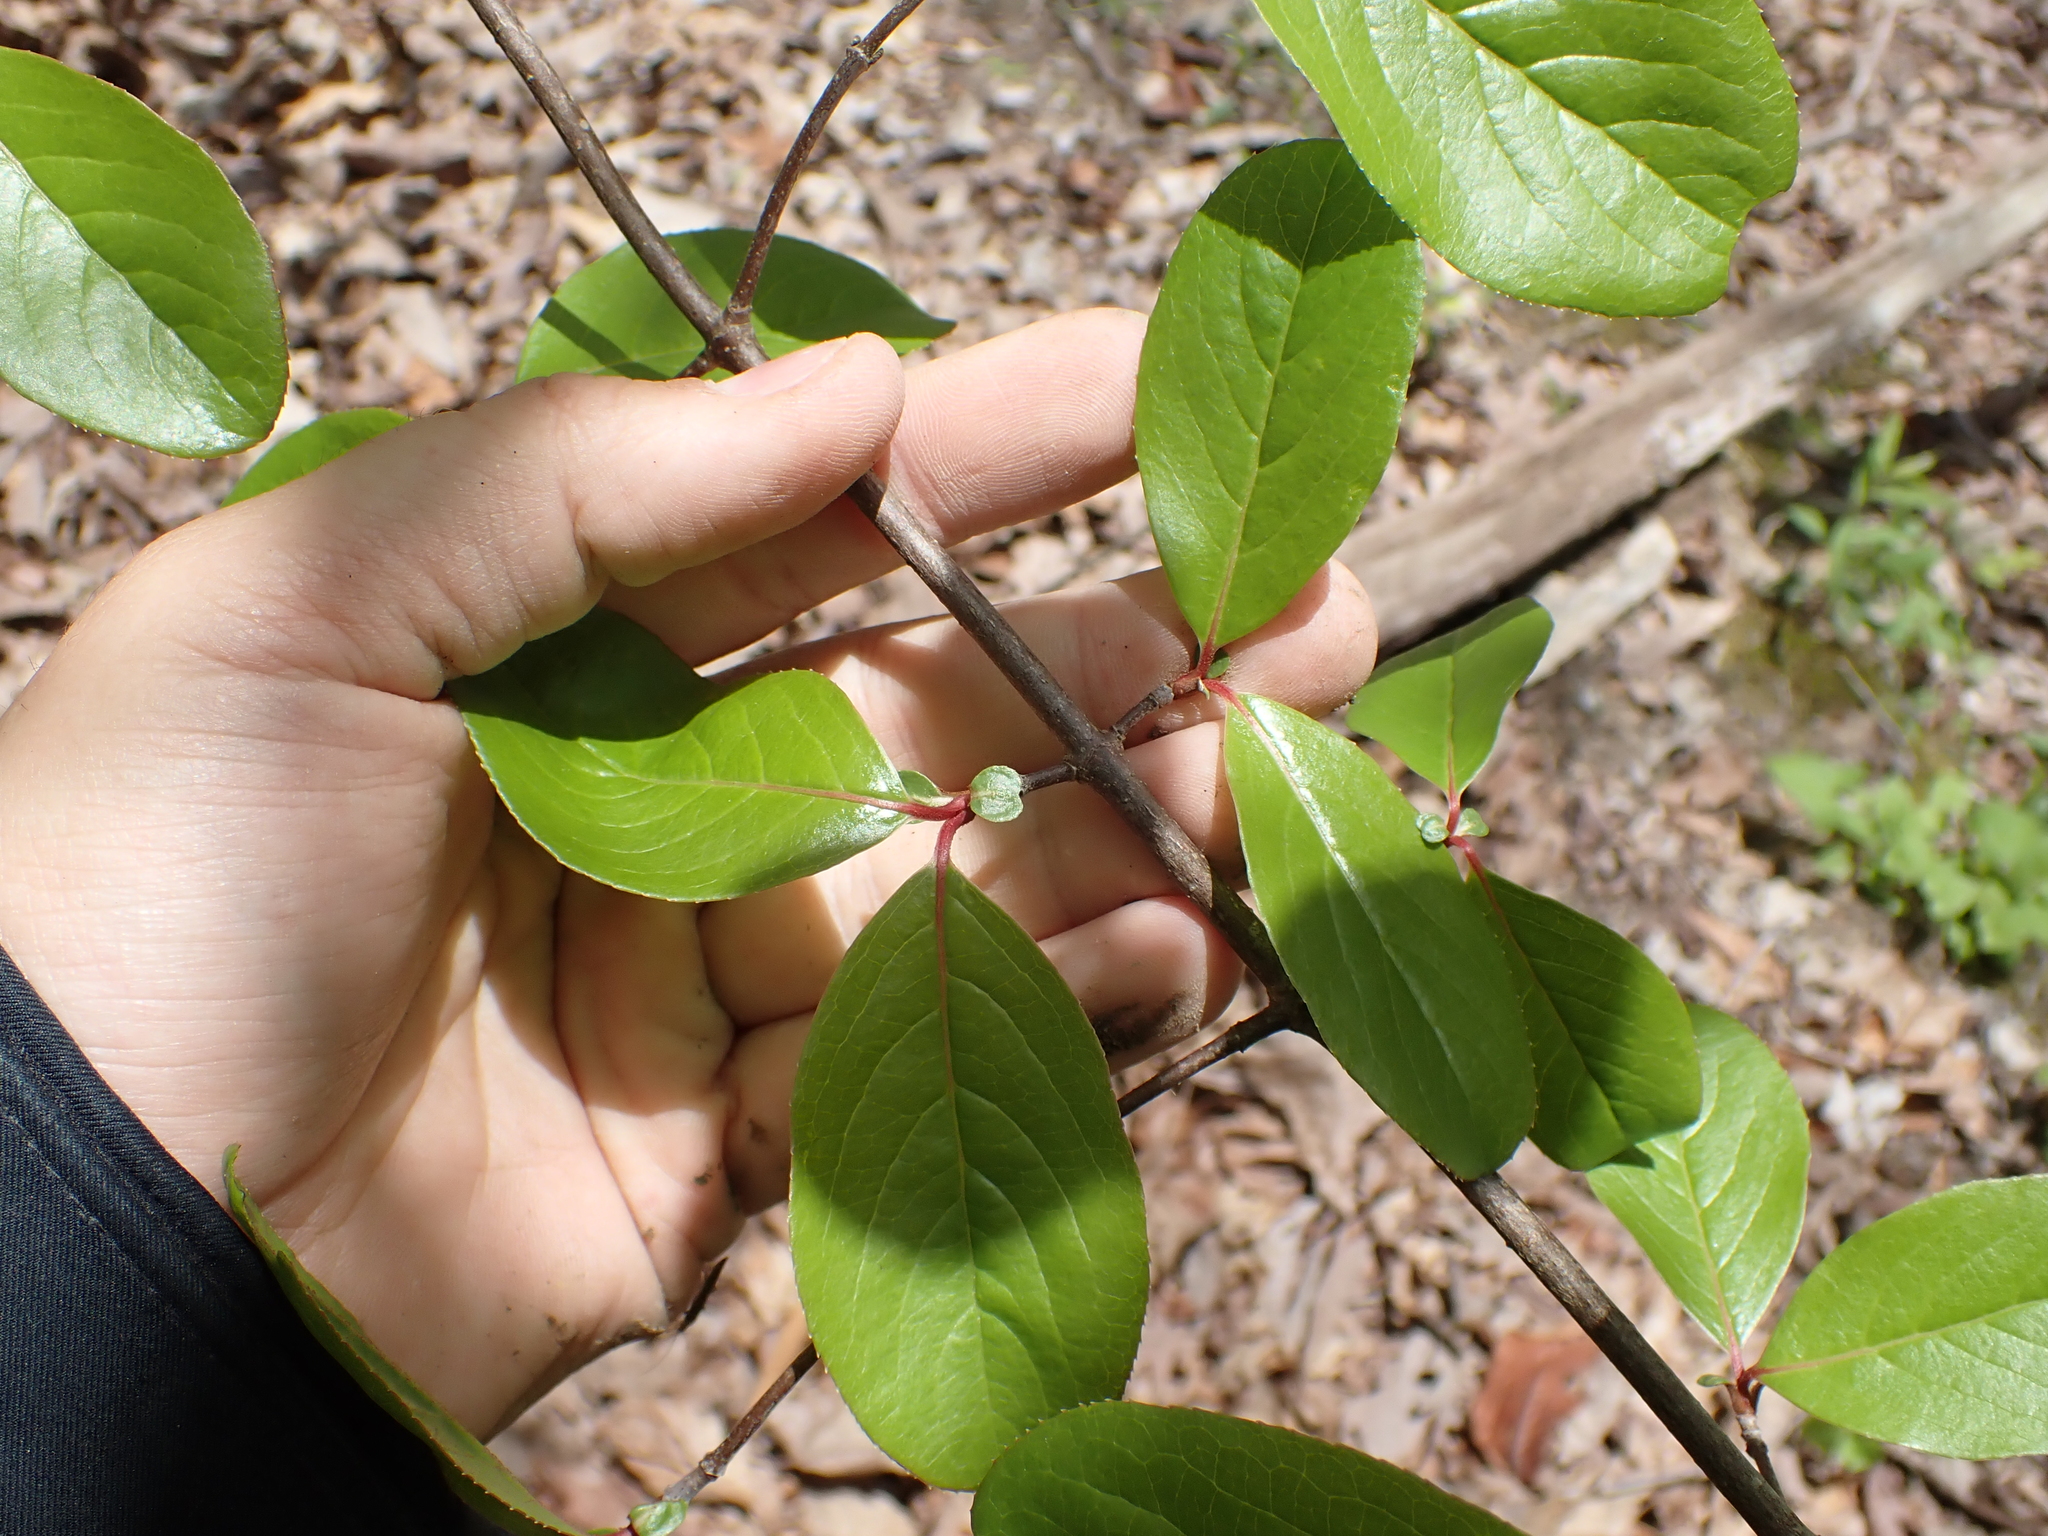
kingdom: Plantae
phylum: Tracheophyta
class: Magnoliopsida
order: Dipsacales
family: Viburnaceae
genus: Viburnum
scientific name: Viburnum rufidulum
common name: Blue haw
